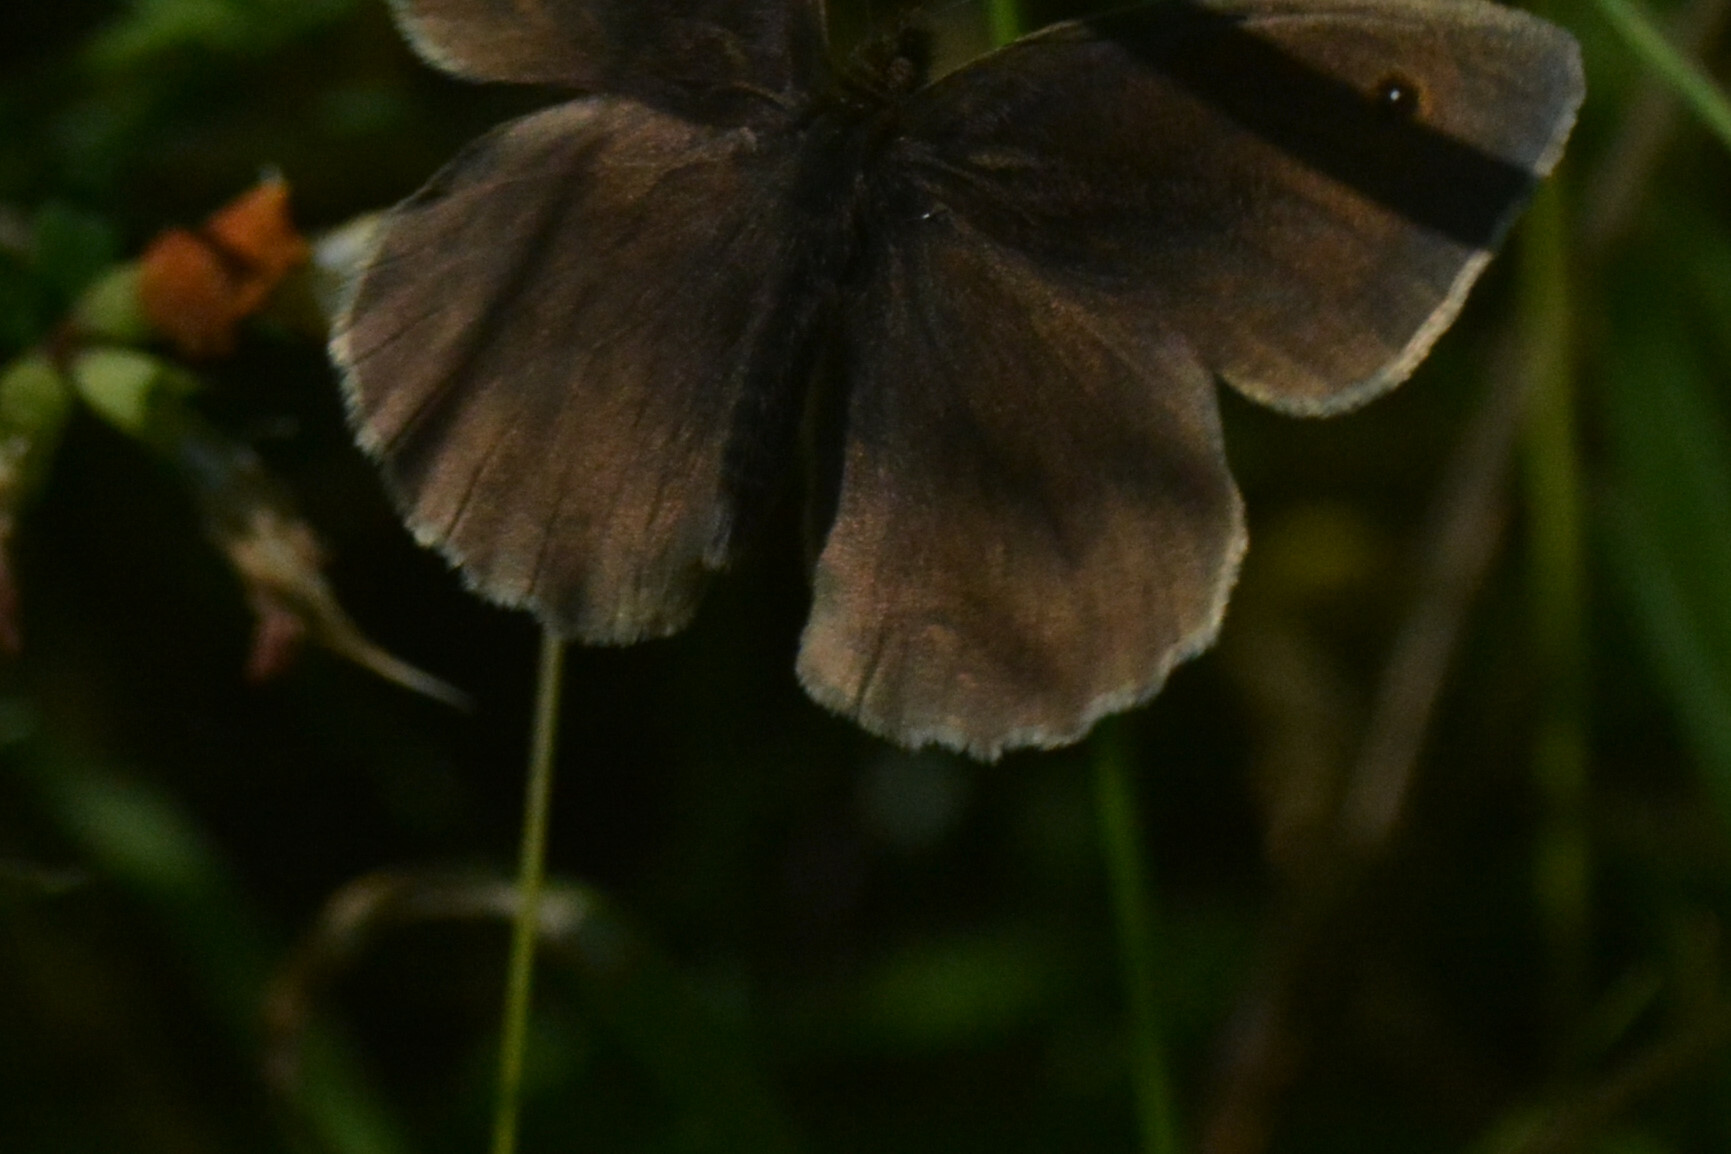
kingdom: Animalia
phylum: Arthropoda
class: Insecta
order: Lepidoptera
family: Nymphalidae
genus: Aphantopus
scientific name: Aphantopus hyperantus
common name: Ringlet
